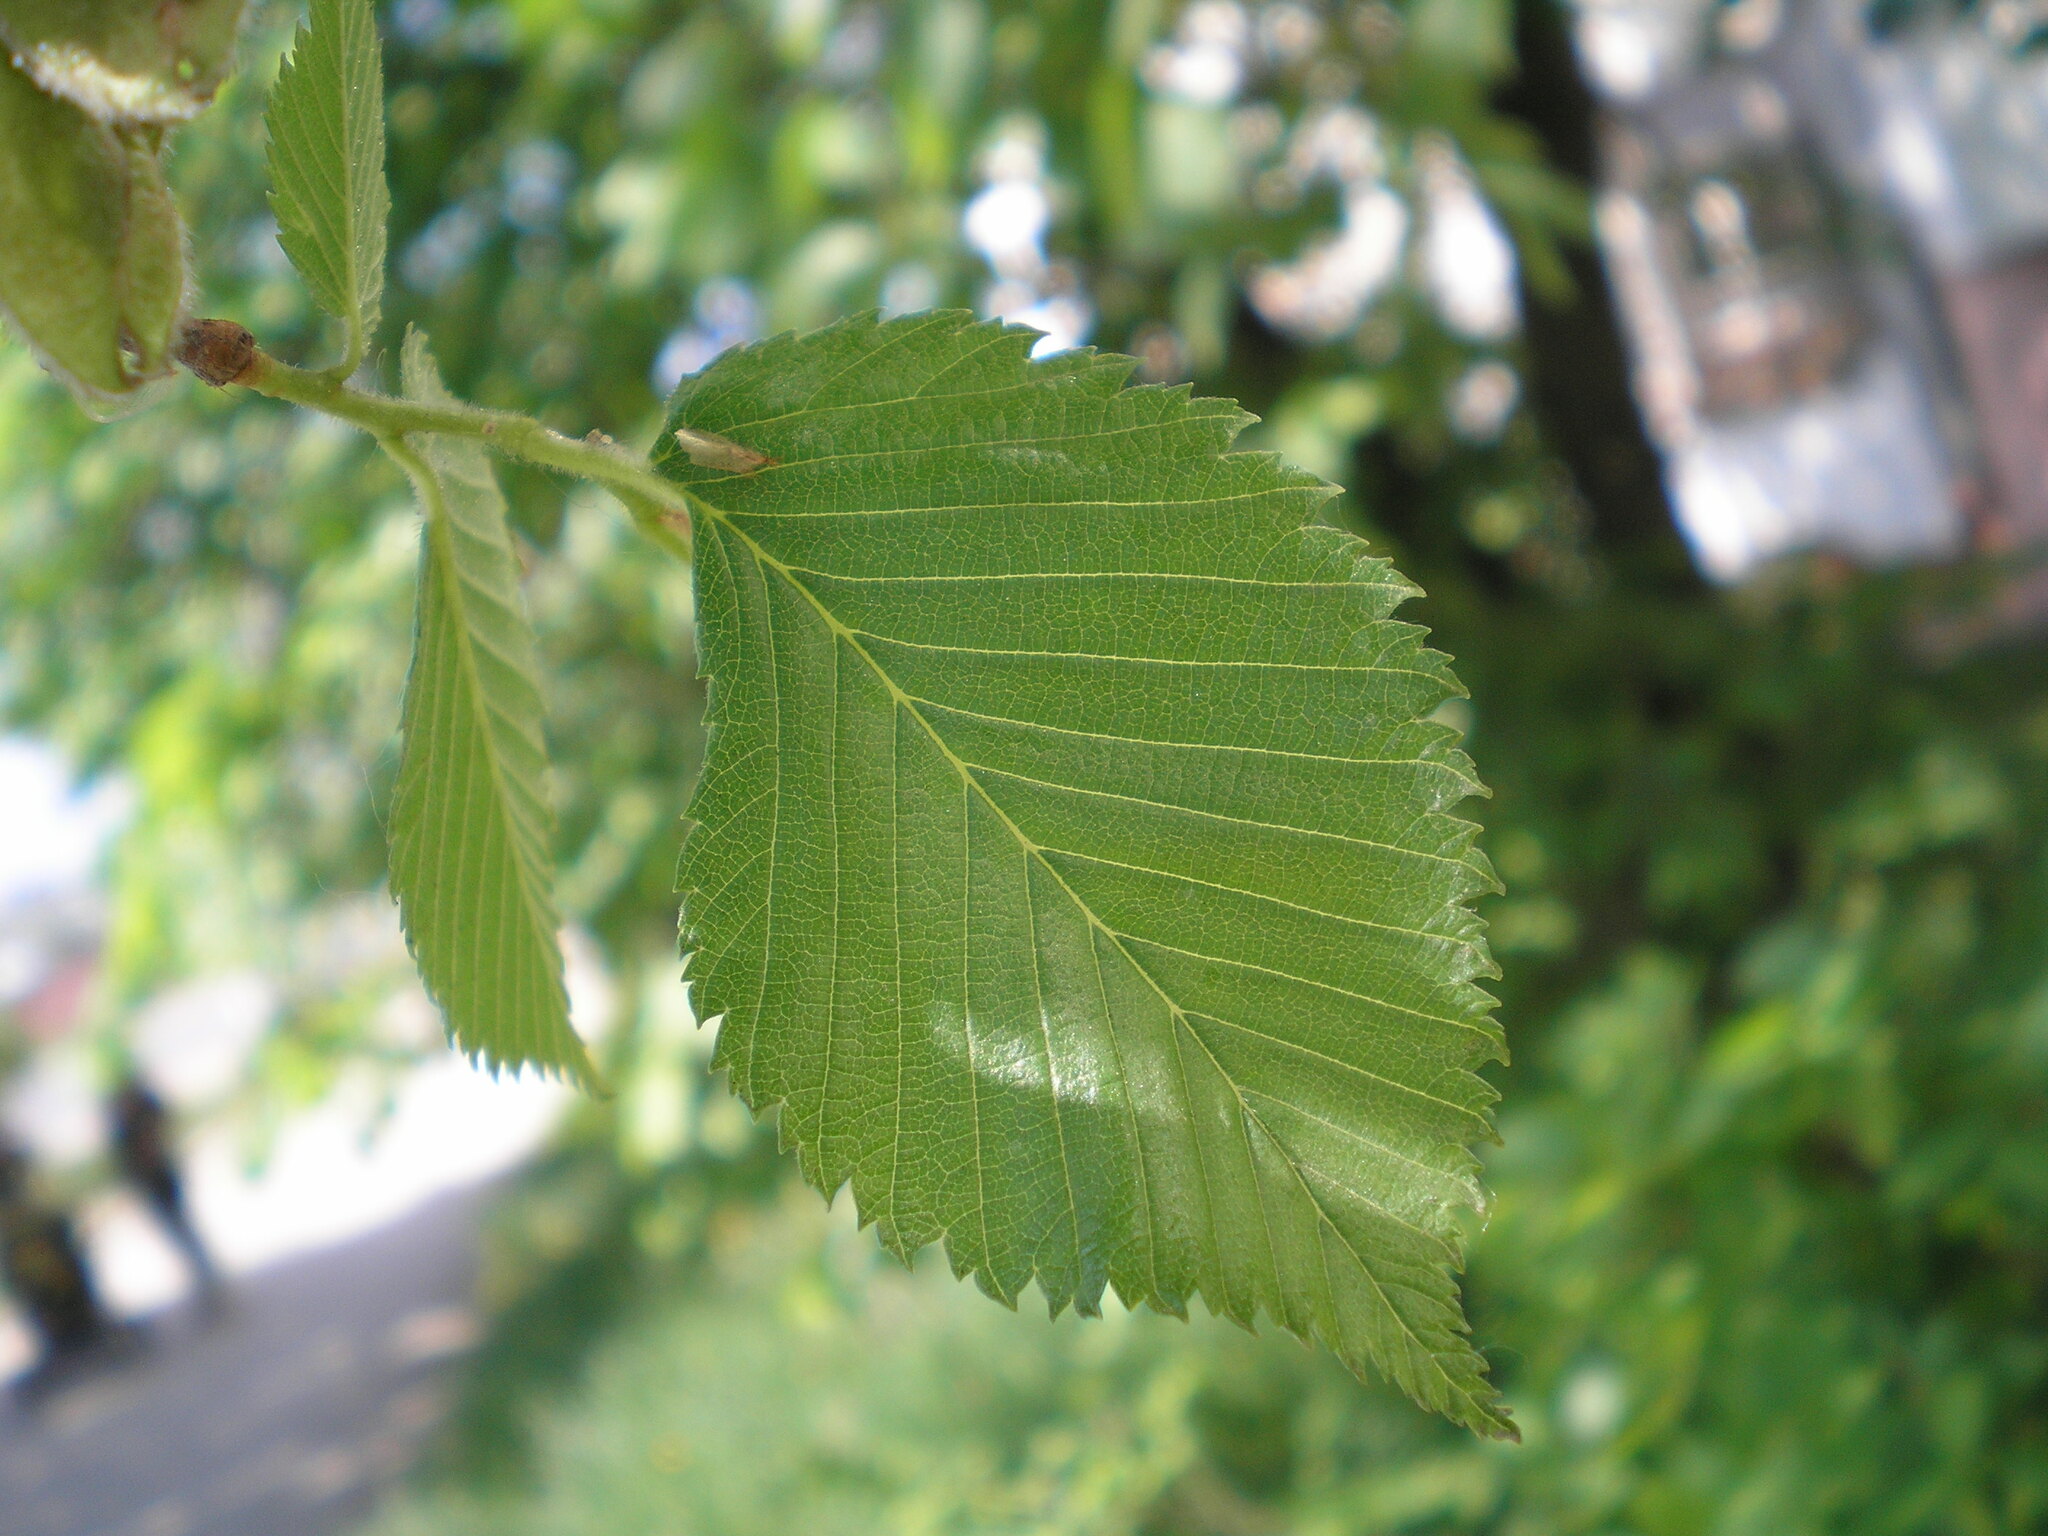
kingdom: Plantae
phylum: Tracheophyta
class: Magnoliopsida
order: Rosales
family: Ulmaceae
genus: Ulmus
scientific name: Ulmus laevis
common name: European white-elm
